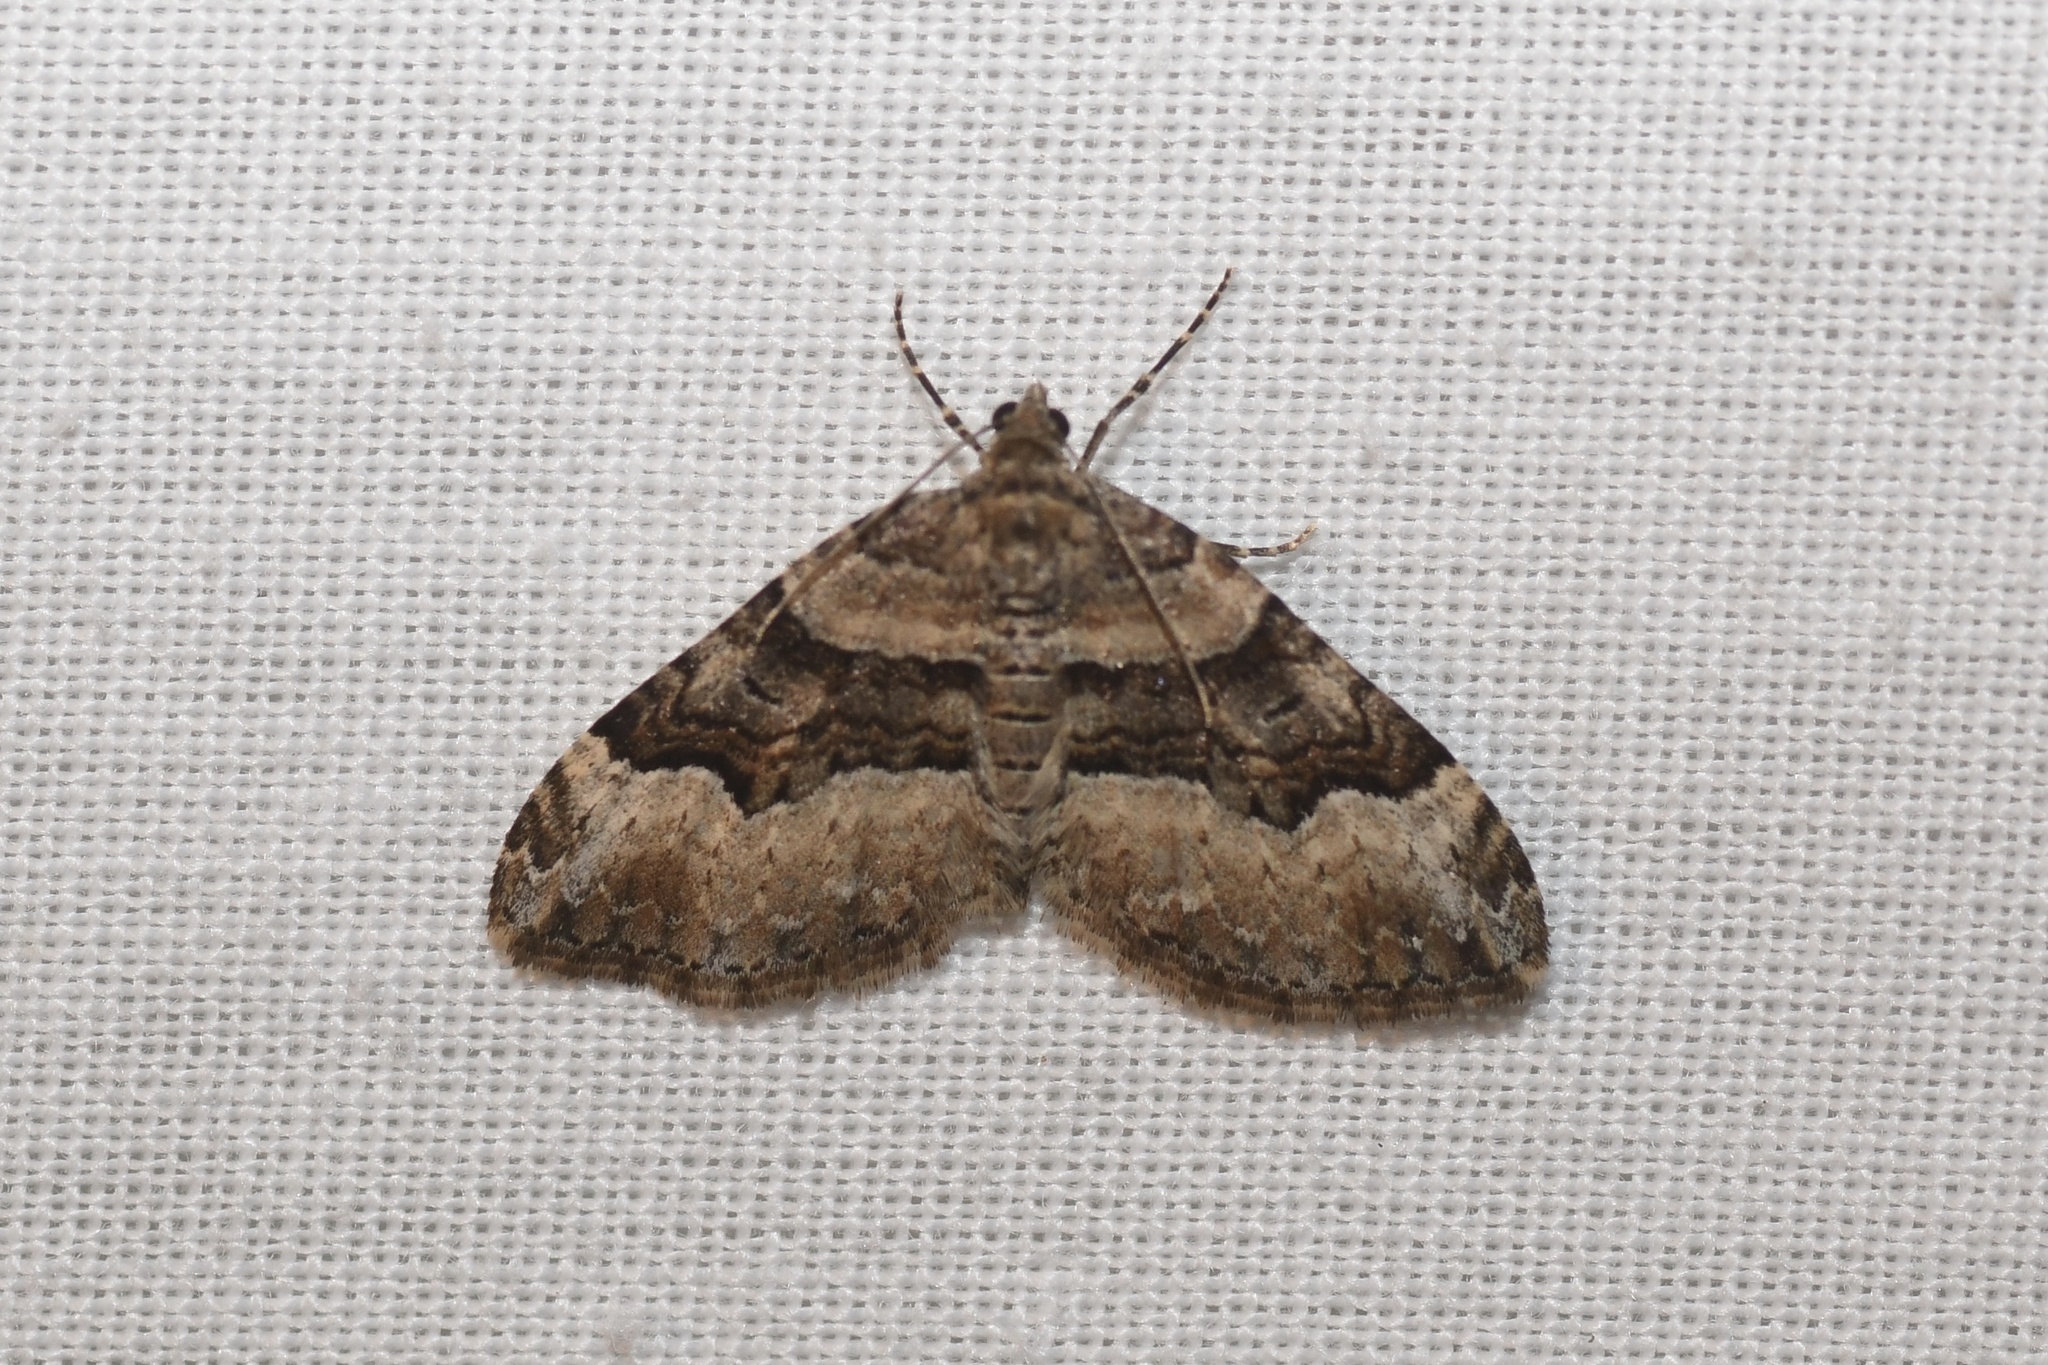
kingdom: Animalia
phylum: Arthropoda
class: Insecta
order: Lepidoptera
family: Geometridae
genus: Xanthorhoe
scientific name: Xanthorhoe lacustrata
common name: Toothed brown carpet
